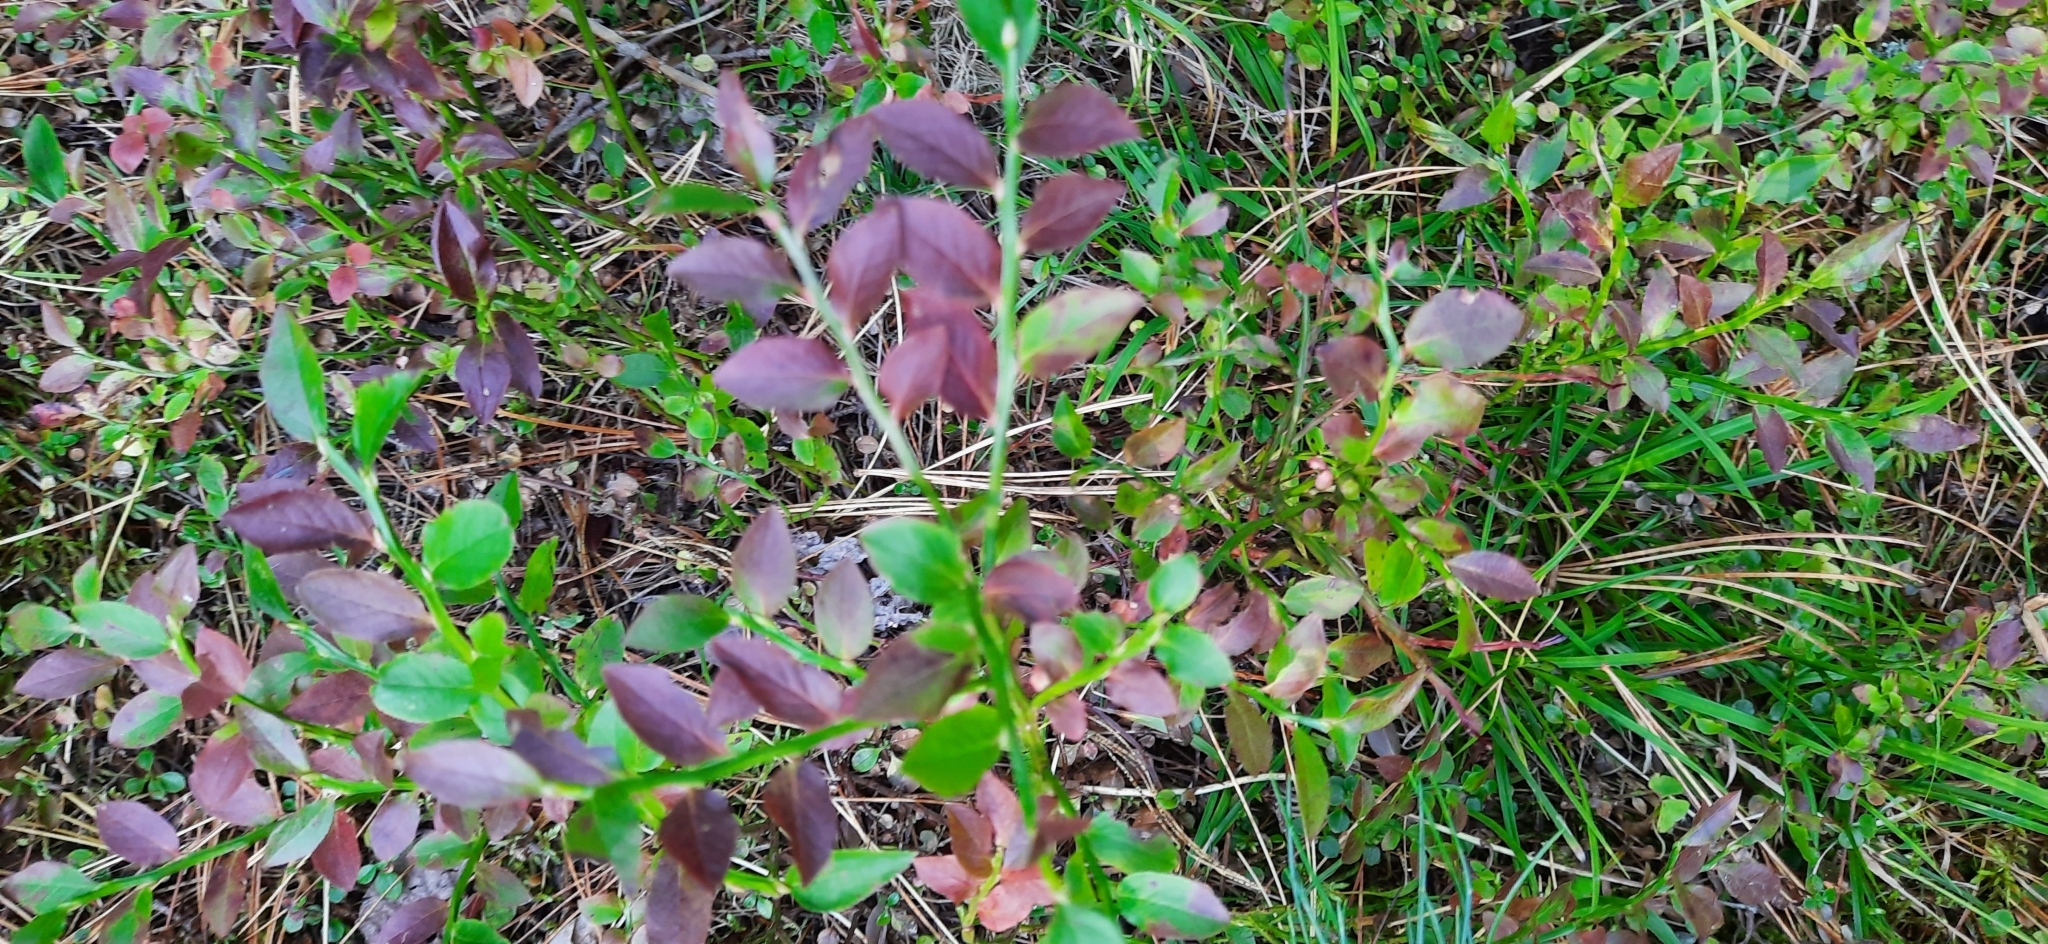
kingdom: Plantae
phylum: Tracheophyta
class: Magnoliopsida
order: Ericales
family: Ericaceae
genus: Vaccinium
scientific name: Vaccinium myrtillus
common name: Bilberry
